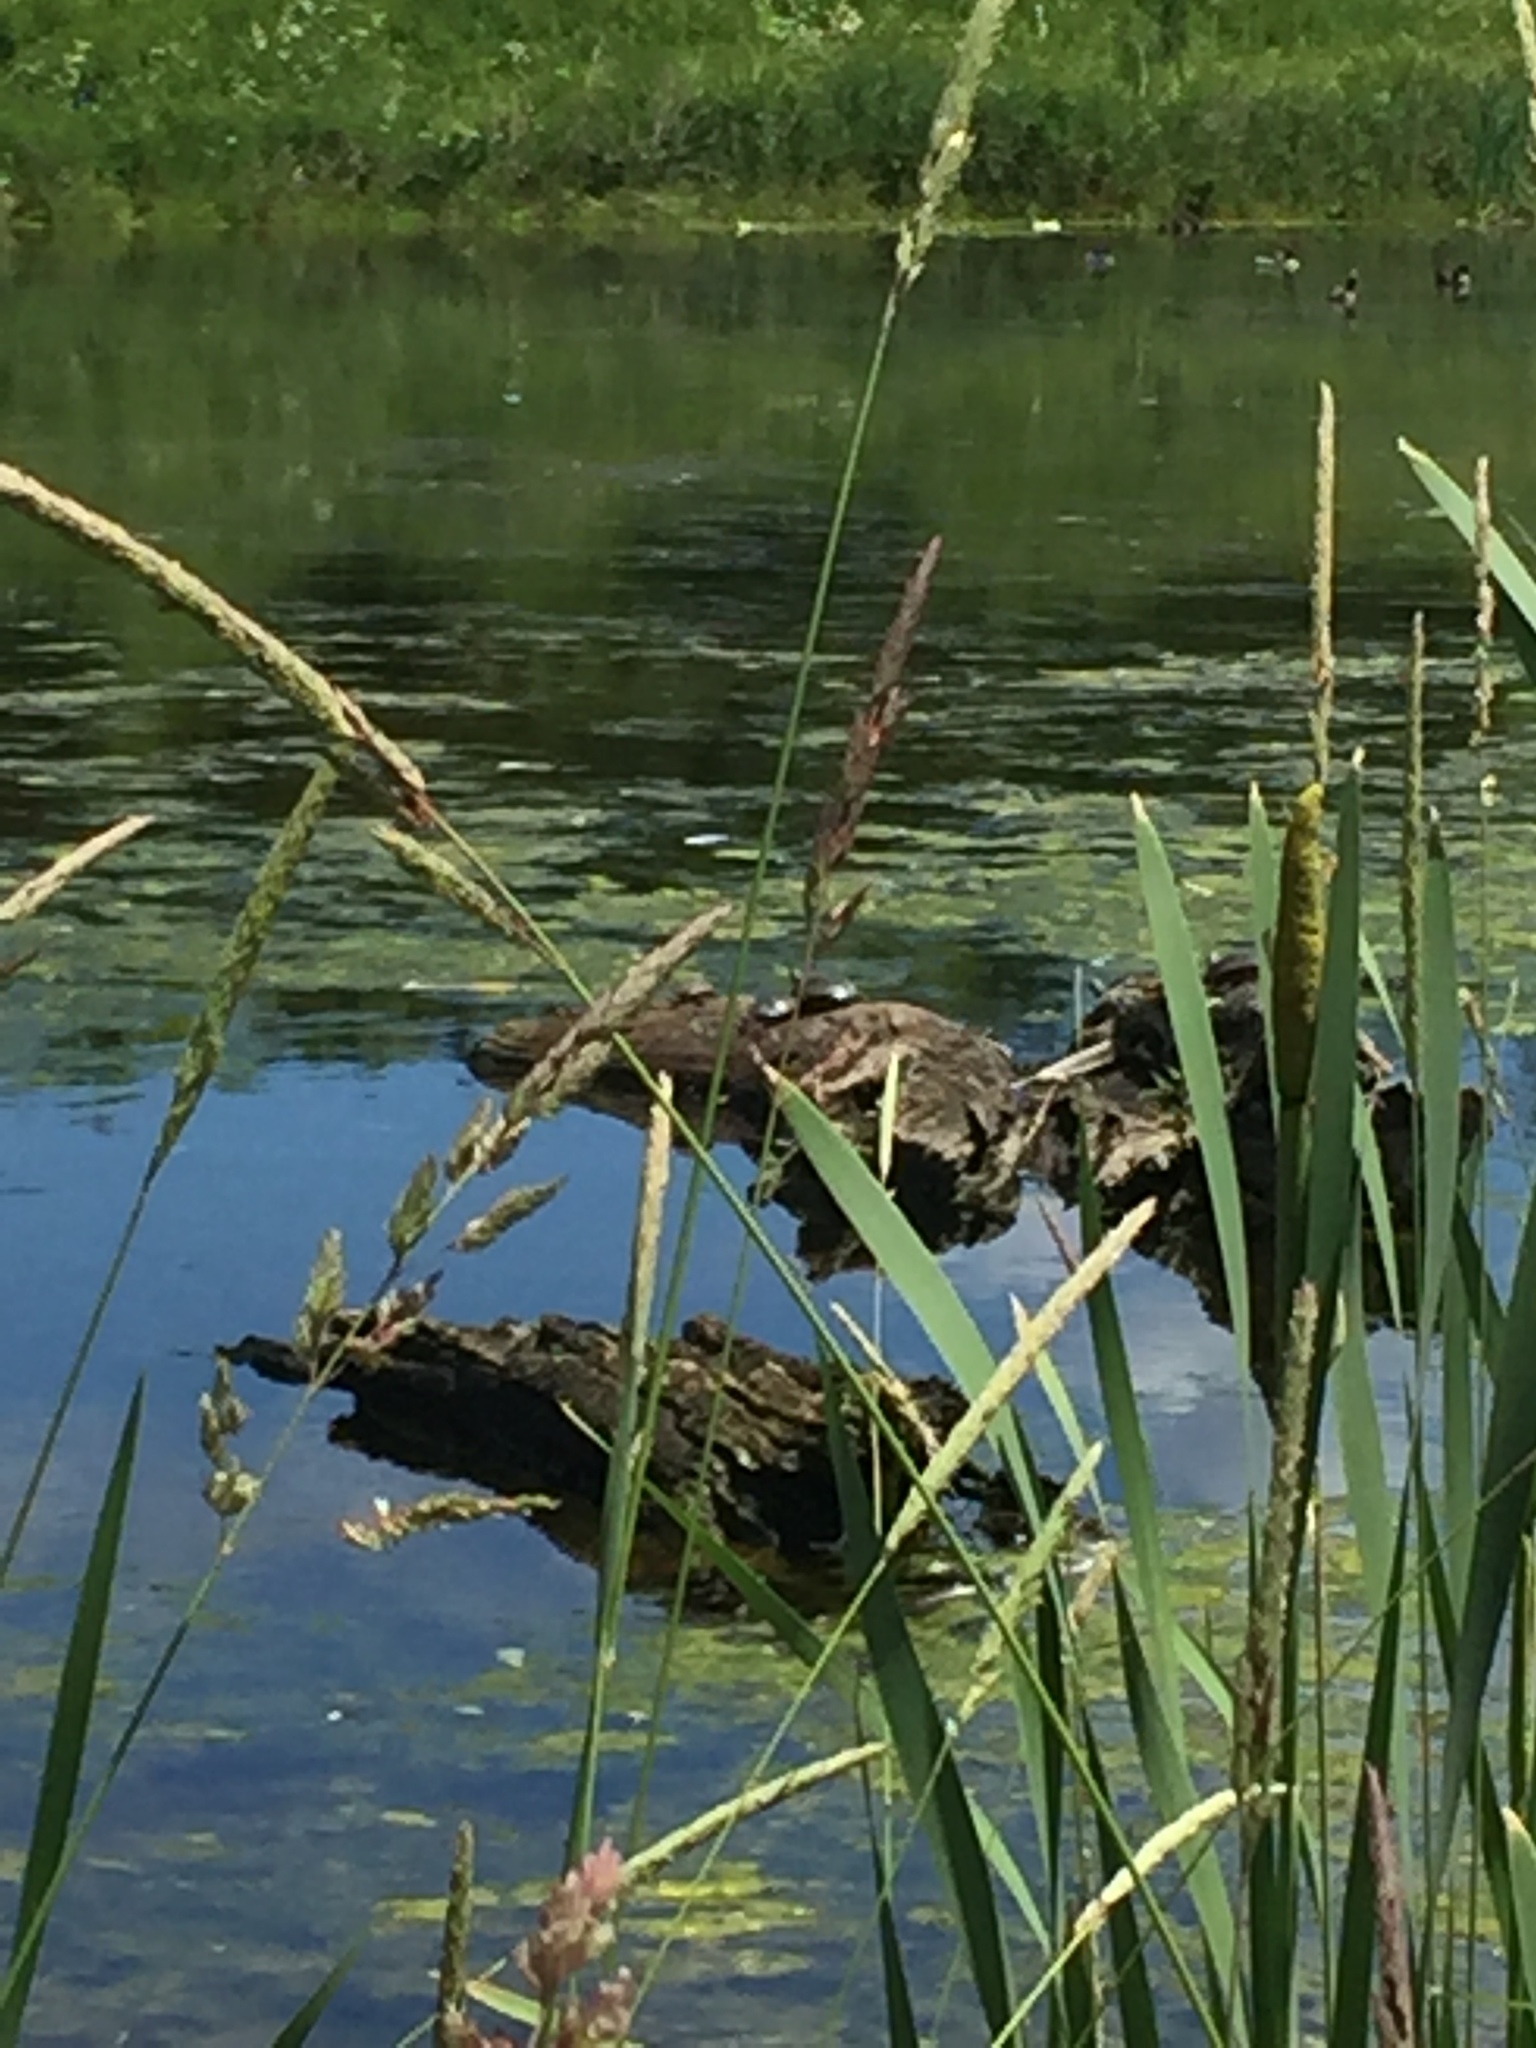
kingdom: Animalia
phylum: Chordata
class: Testudines
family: Emydidae
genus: Chrysemys
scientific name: Chrysemys picta
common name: Painted turtle
